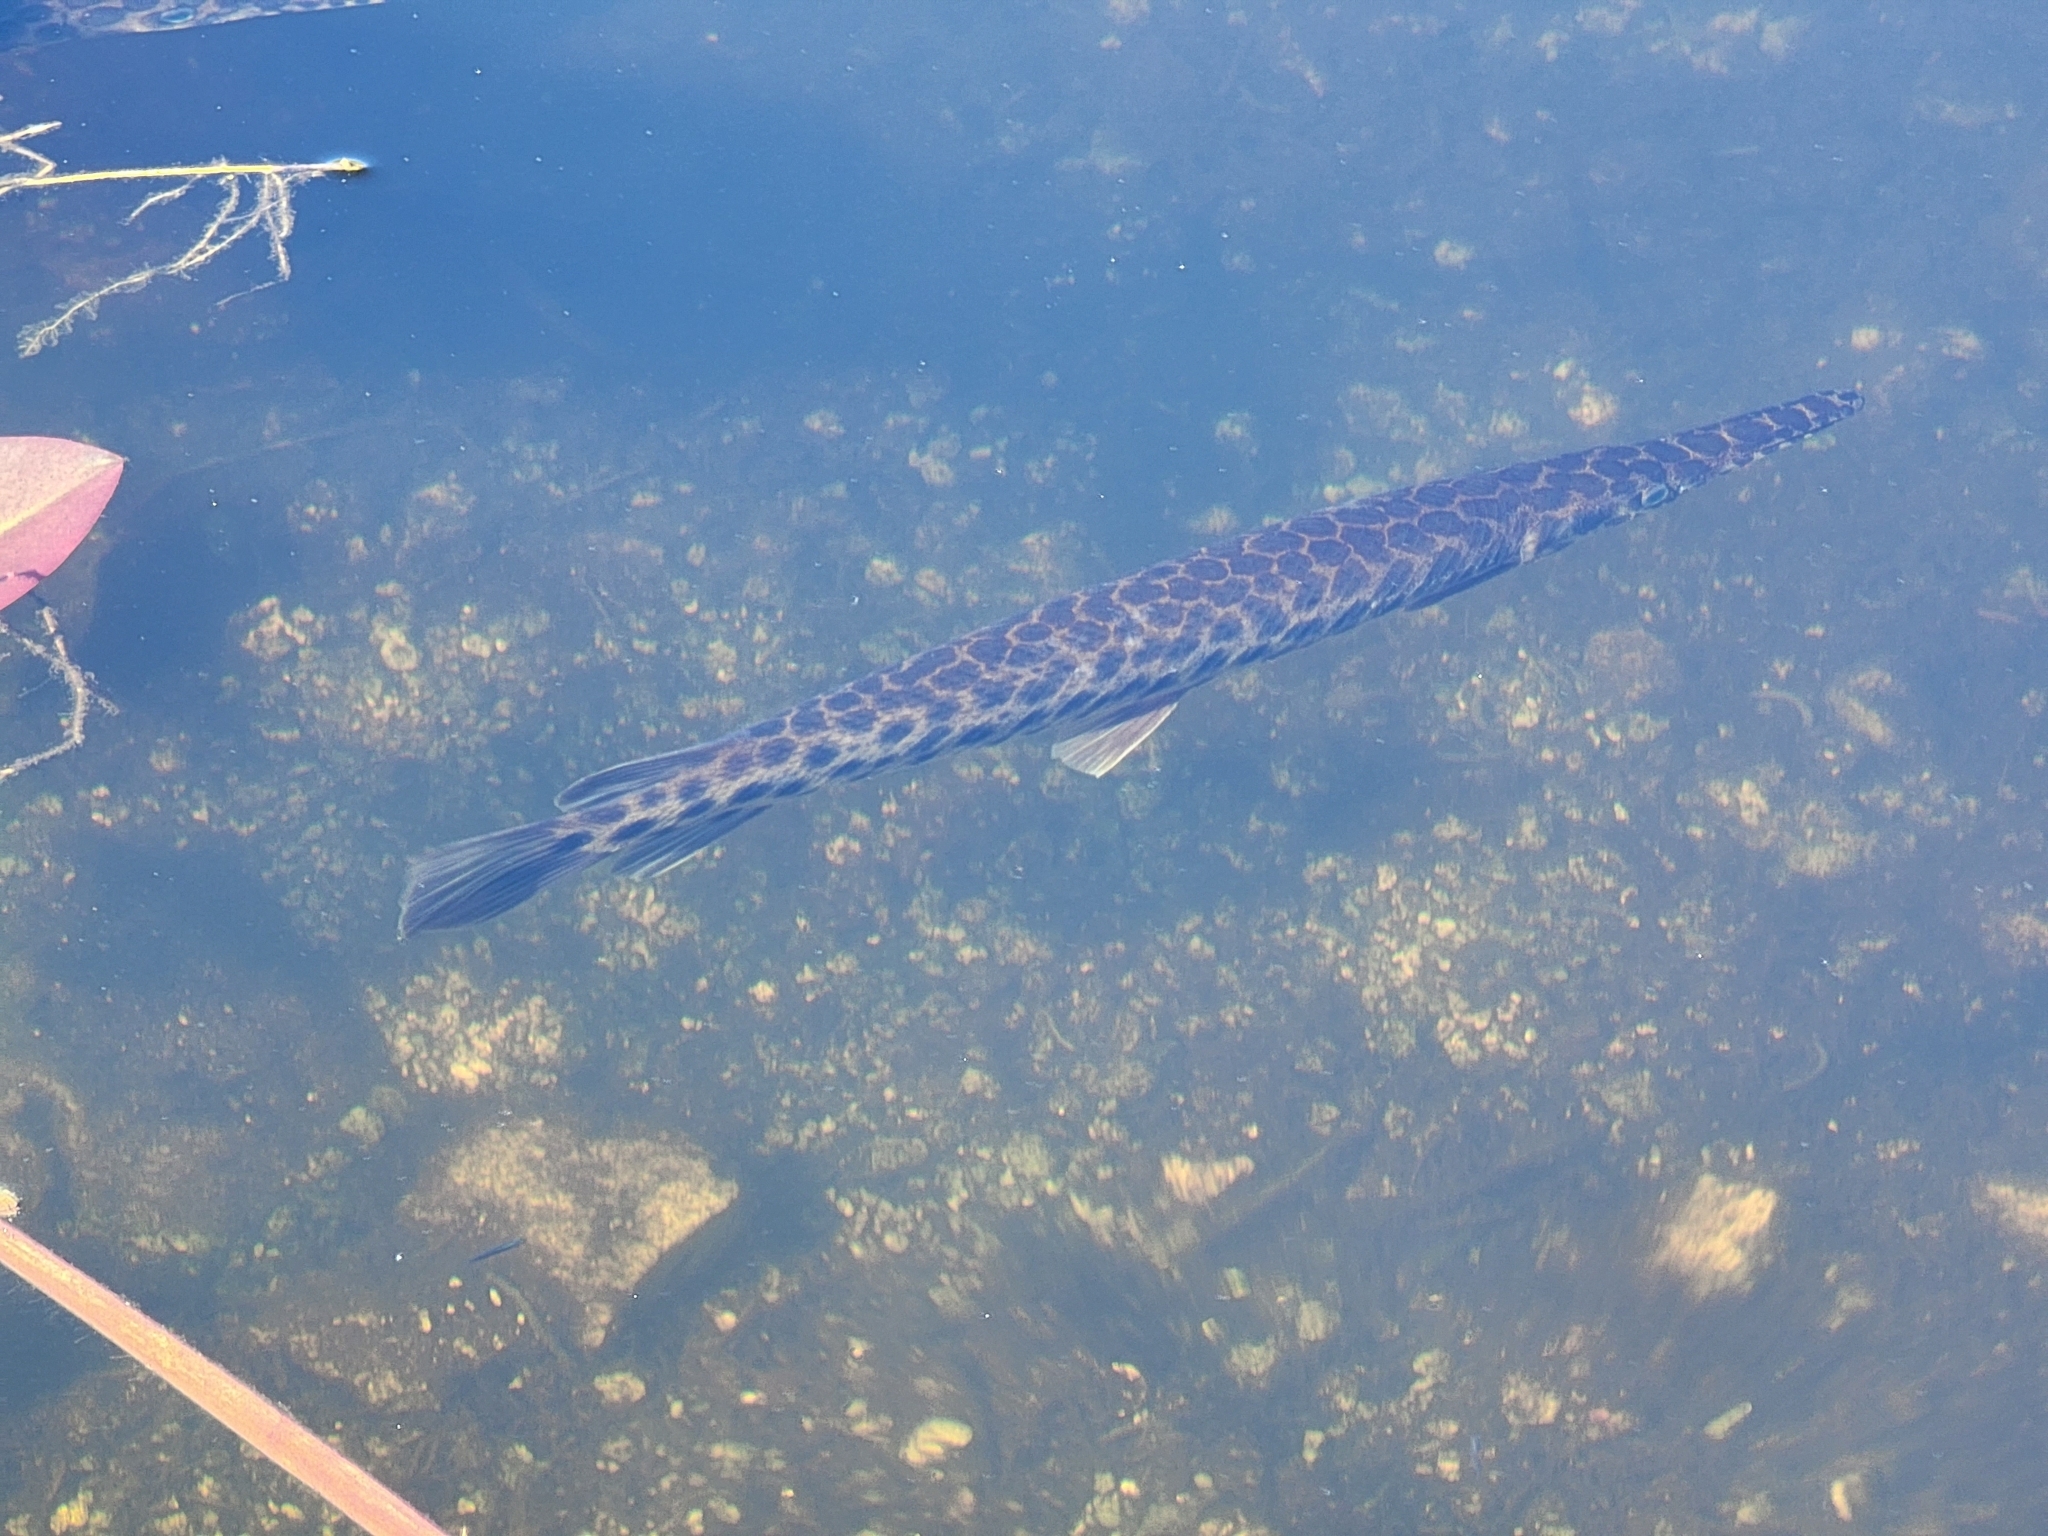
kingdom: Animalia
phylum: Chordata
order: Lepisosteiformes
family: Lepisosteidae
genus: Lepisosteus
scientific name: Lepisosteus platyrhincus
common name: Florida gar
